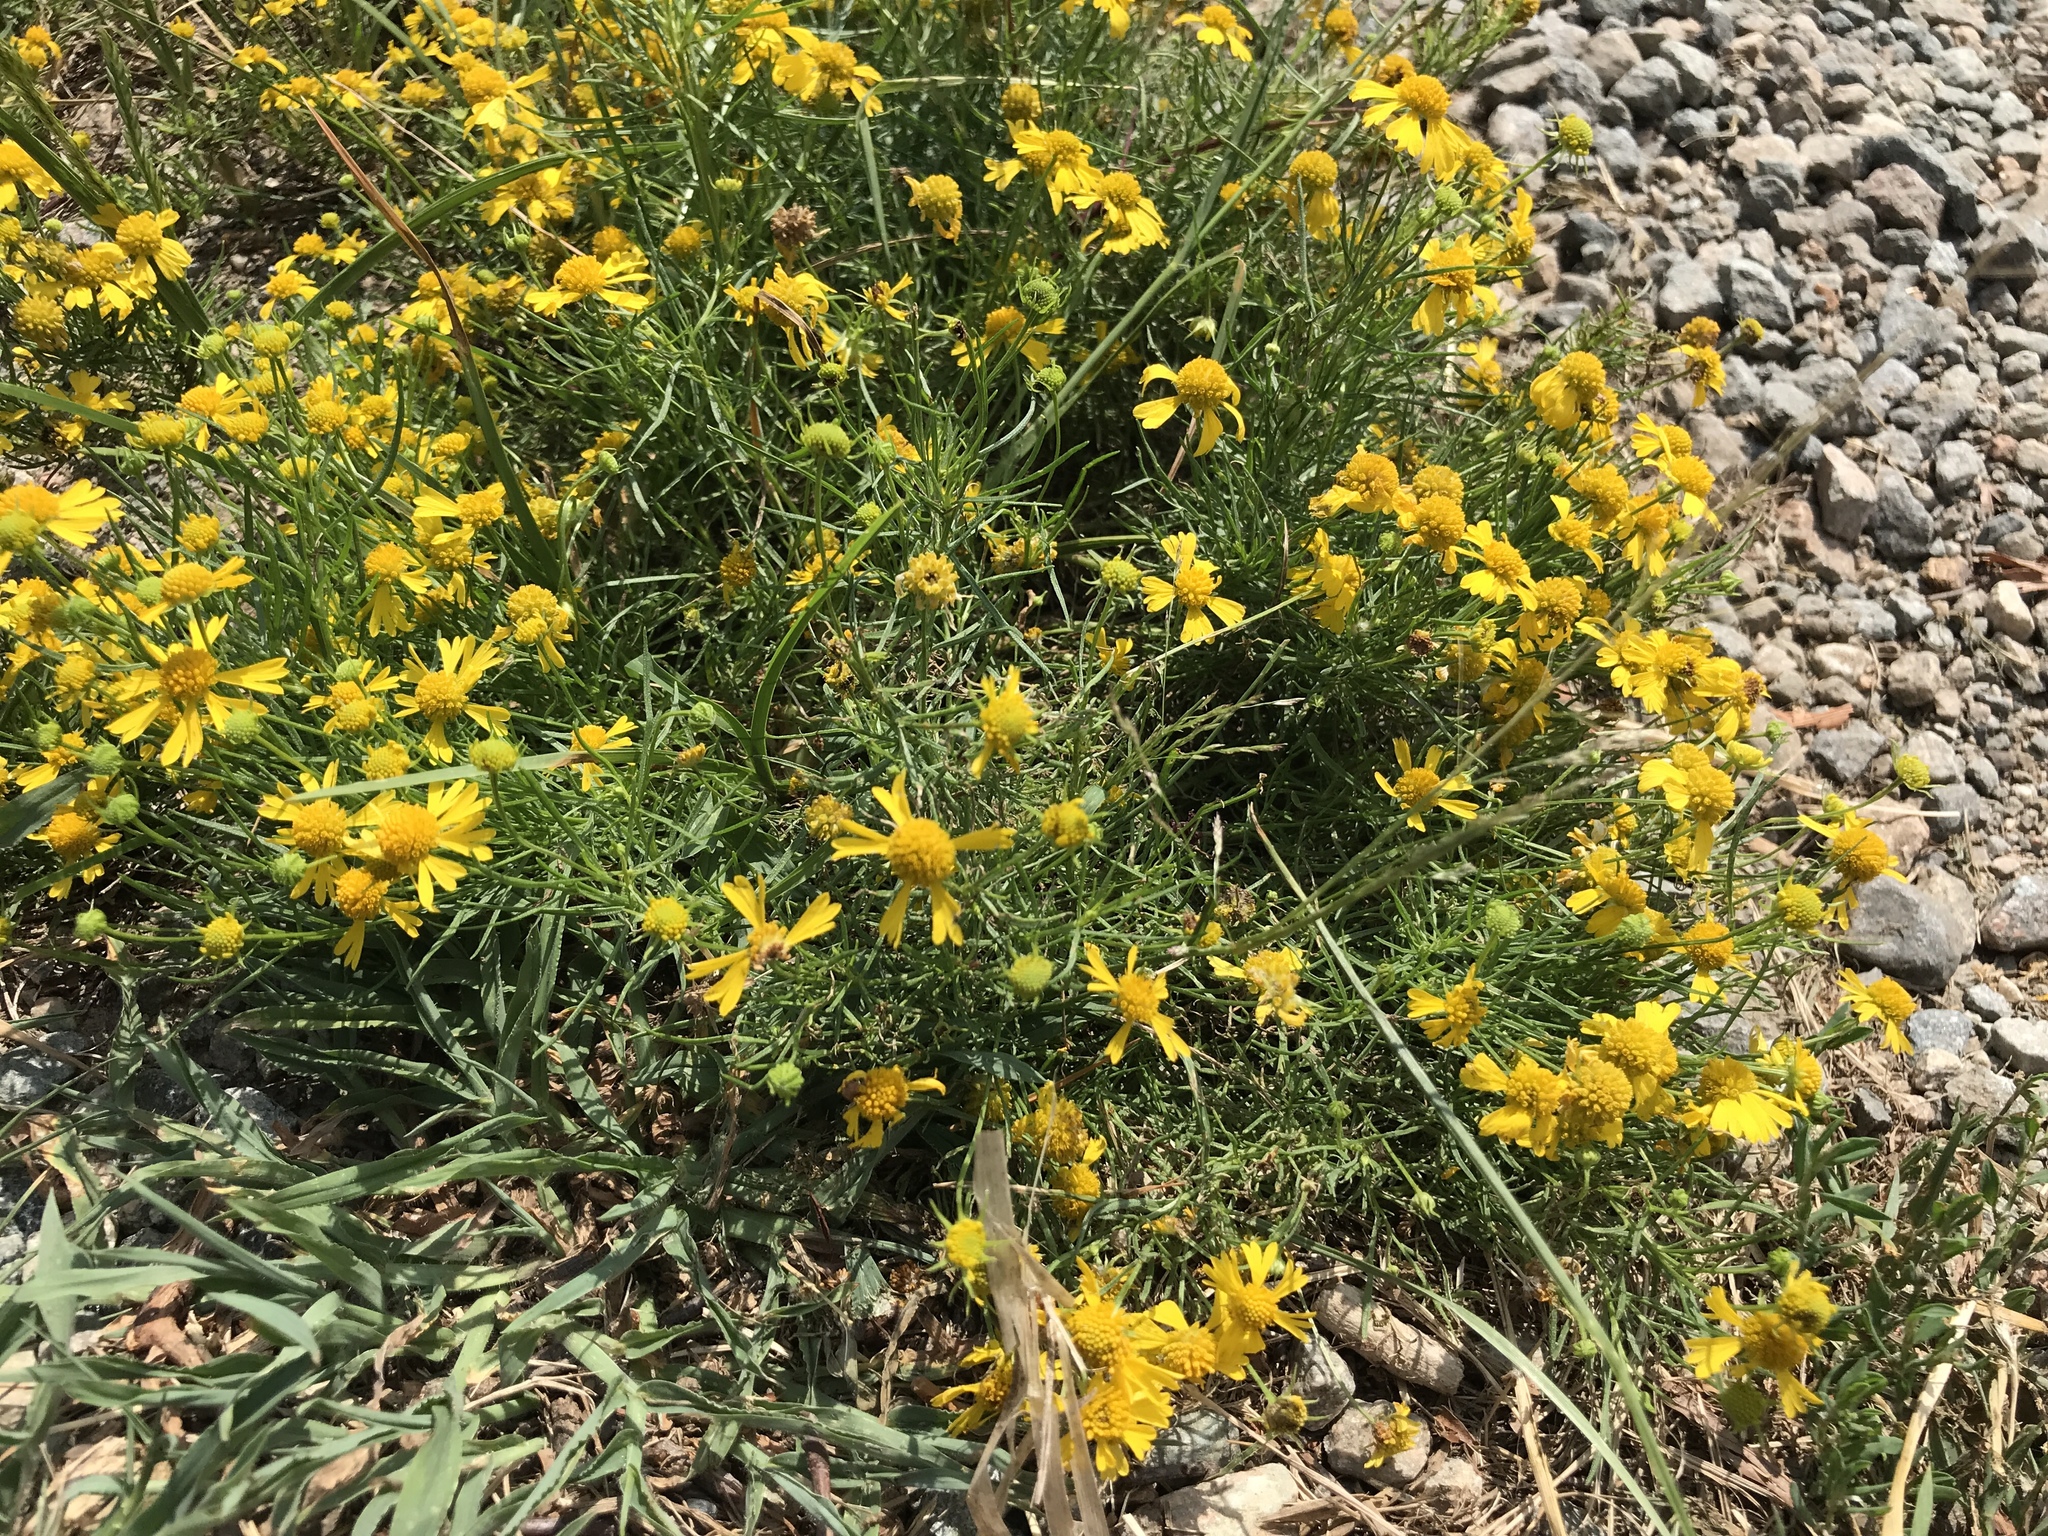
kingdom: Plantae
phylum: Tracheophyta
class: Magnoliopsida
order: Asterales
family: Asteraceae
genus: Helenium
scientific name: Helenium amarum
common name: Bitter sneezeweed
